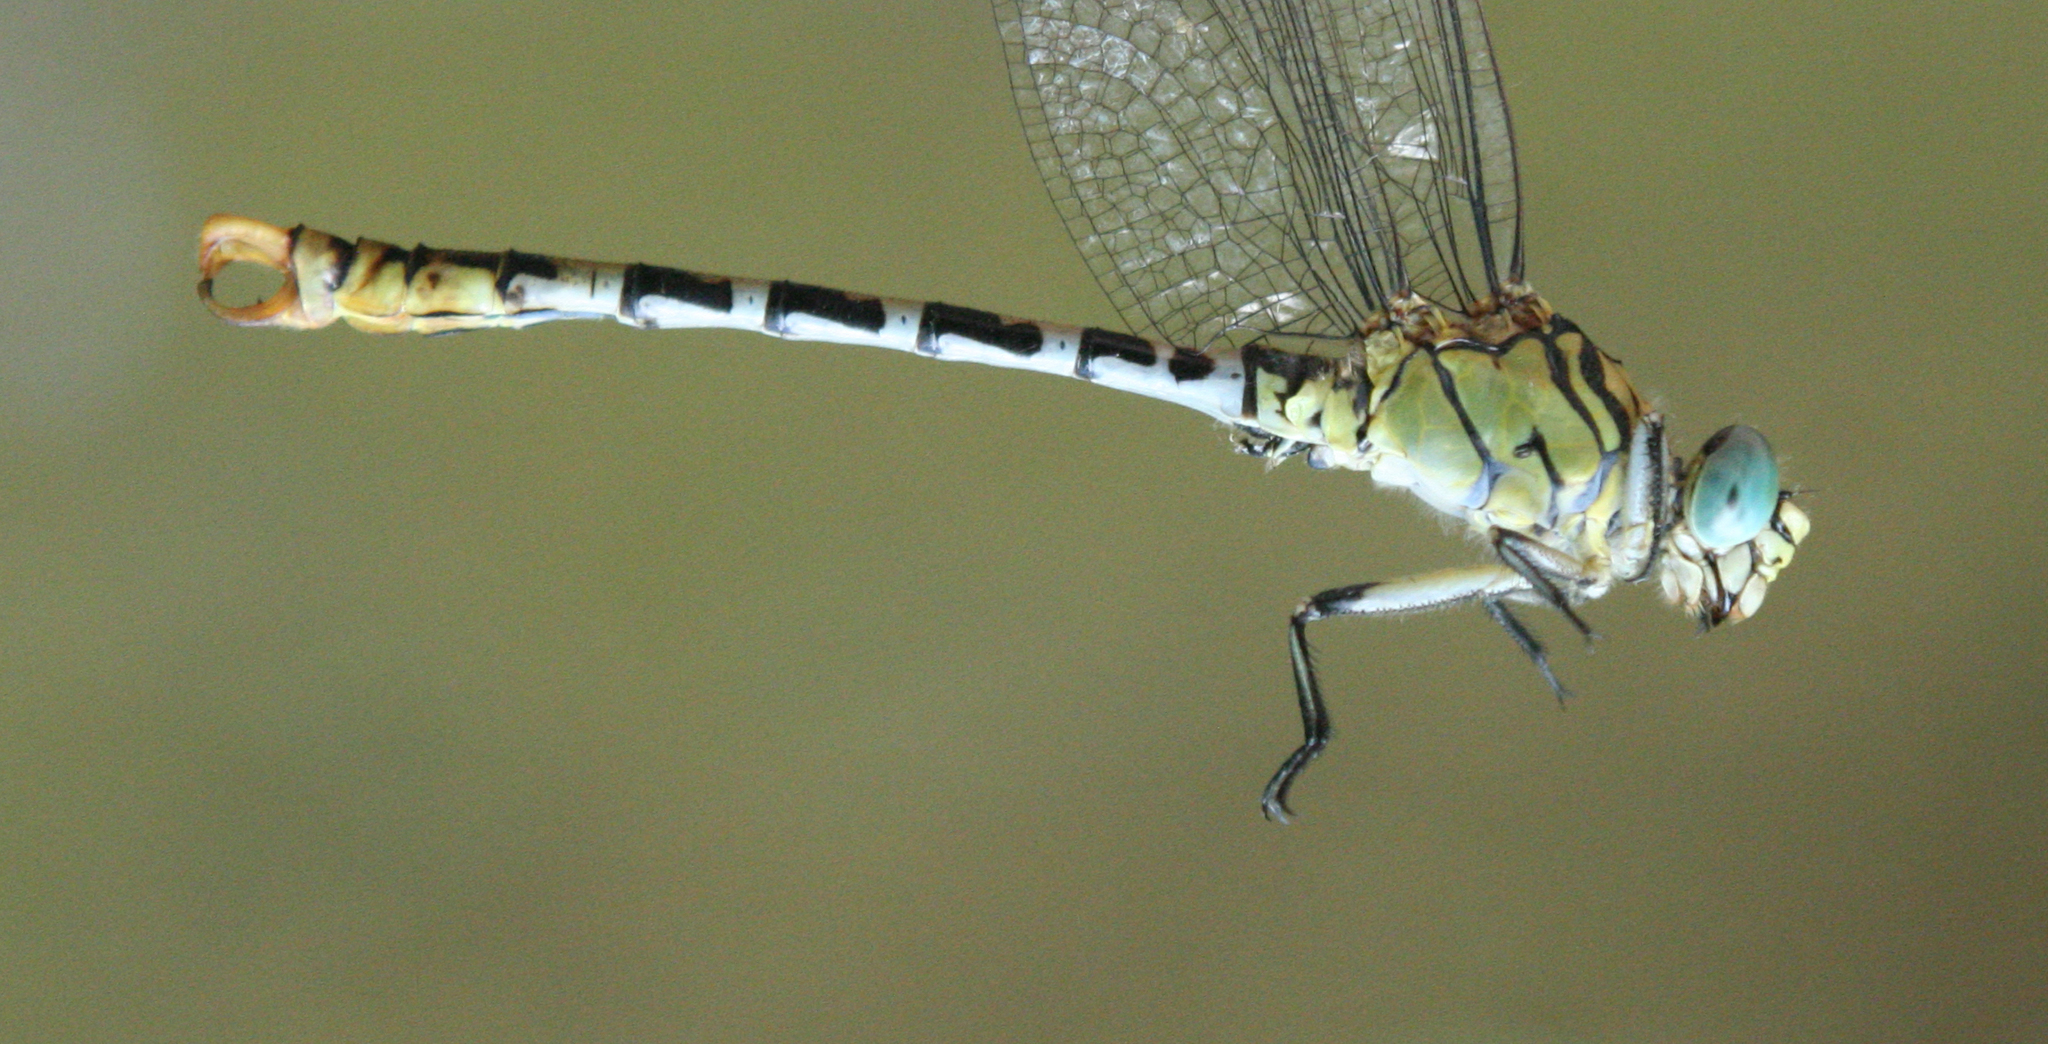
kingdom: Animalia
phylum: Arthropoda
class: Insecta
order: Odonata
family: Gomphidae
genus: Onychogomphus
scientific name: Onychogomphus forcipatus
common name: Small pincertail
